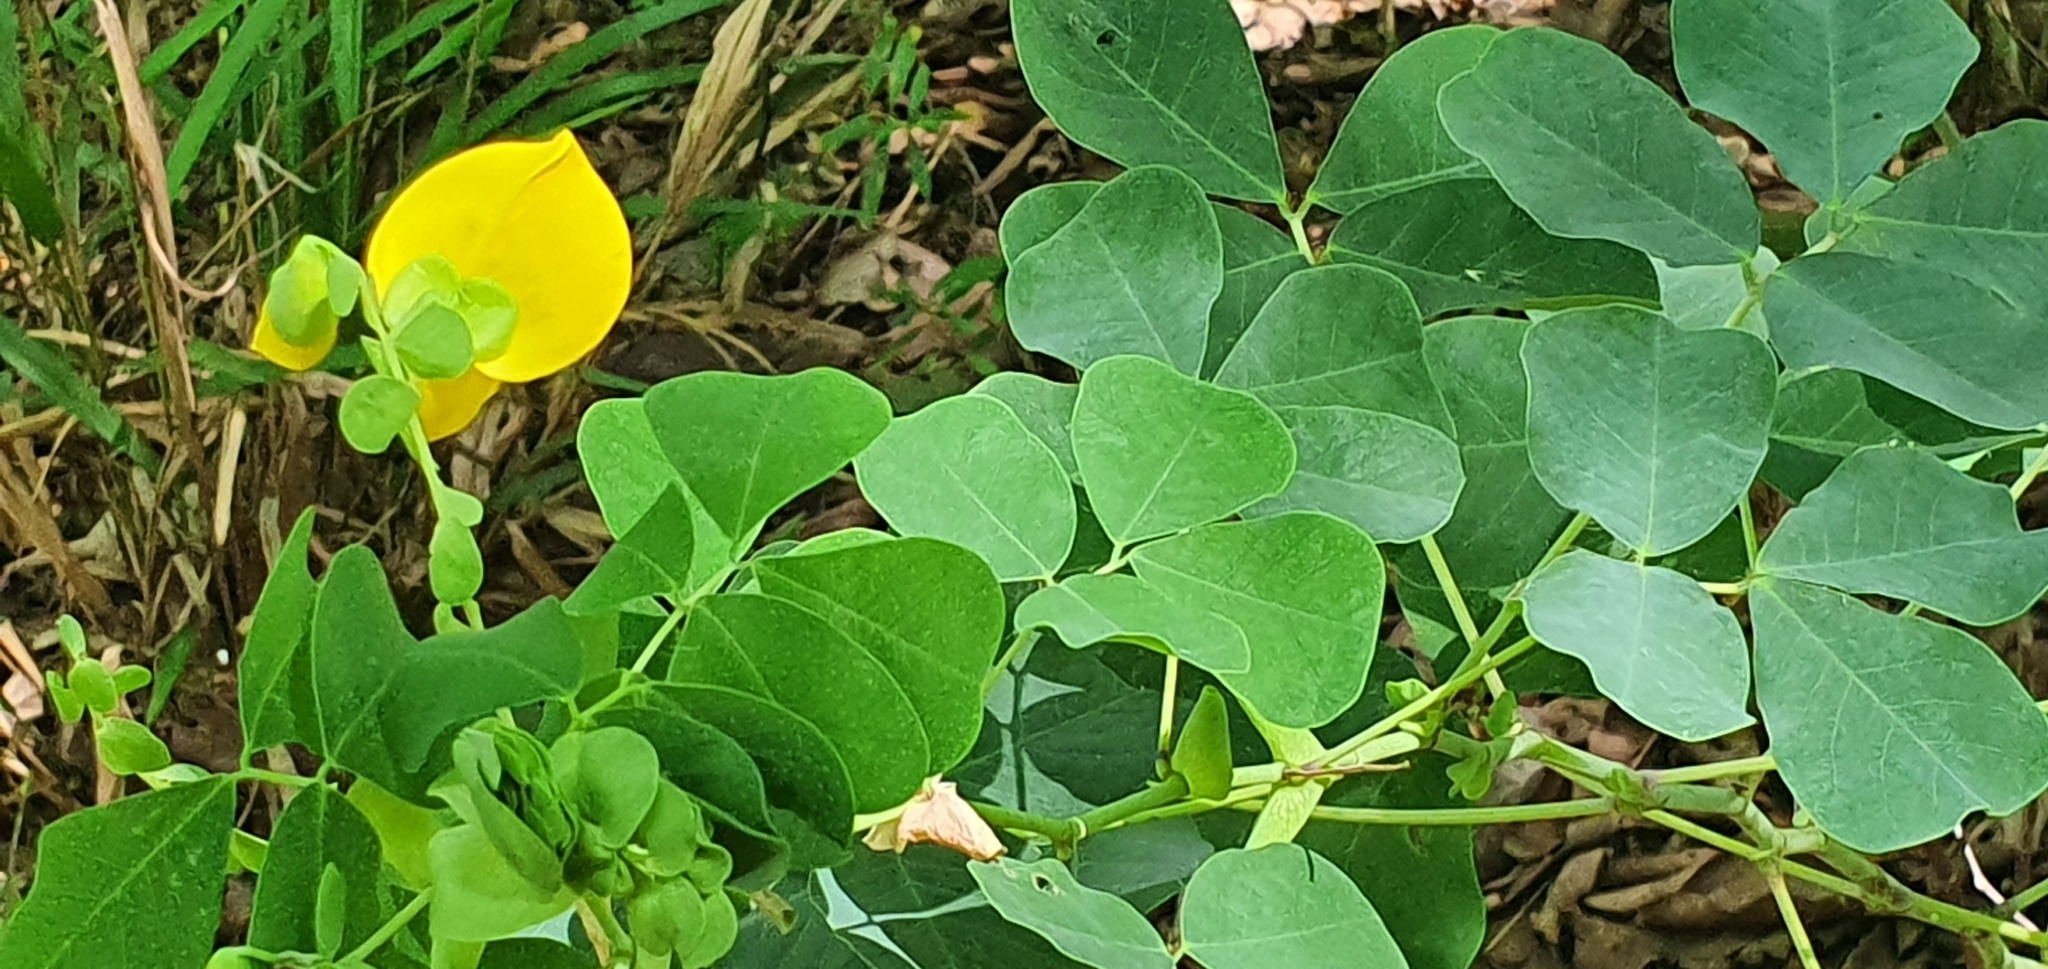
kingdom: Plantae
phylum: Tracheophyta
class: Magnoliopsida
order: Fabales
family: Fabaceae
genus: Amicia
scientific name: Amicia zygomeris
